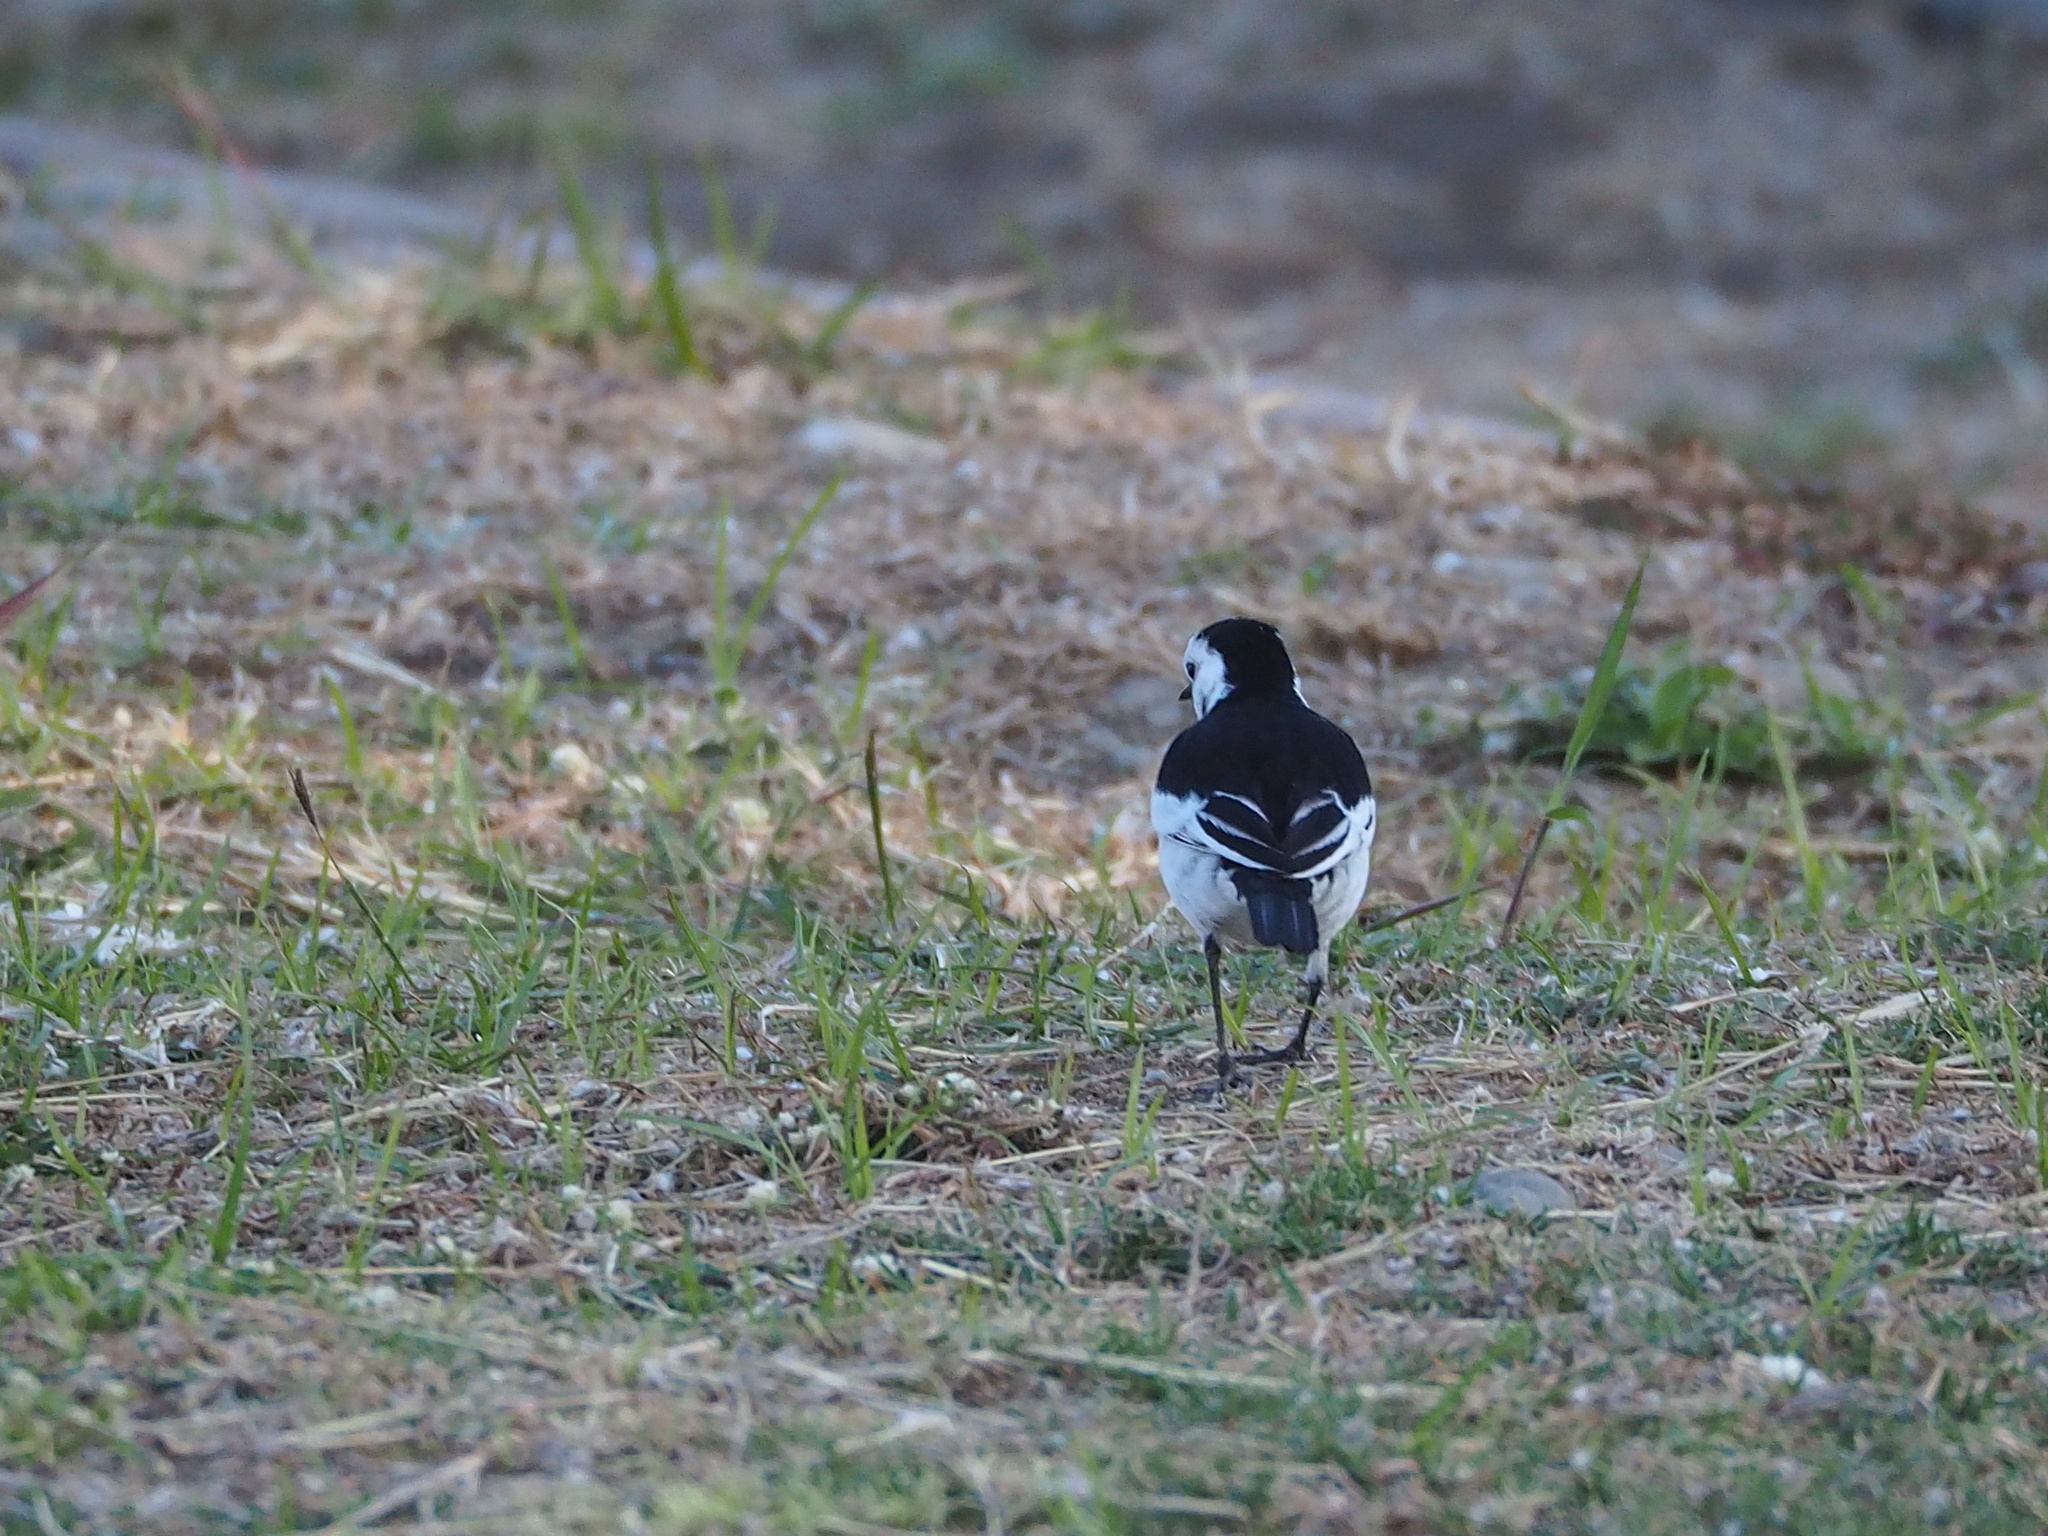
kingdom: Animalia
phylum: Chordata
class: Aves
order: Passeriformes
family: Motacillidae
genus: Motacilla
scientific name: Motacilla alba
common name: White wagtail
